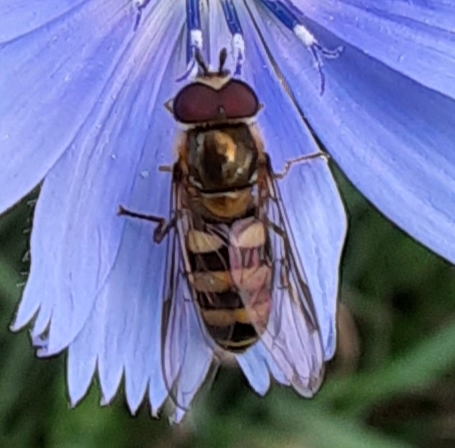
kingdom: Animalia
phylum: Arthropoda
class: Insecta
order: Diptera
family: Syrphidae
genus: Eupeodes
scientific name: Eupeodes
